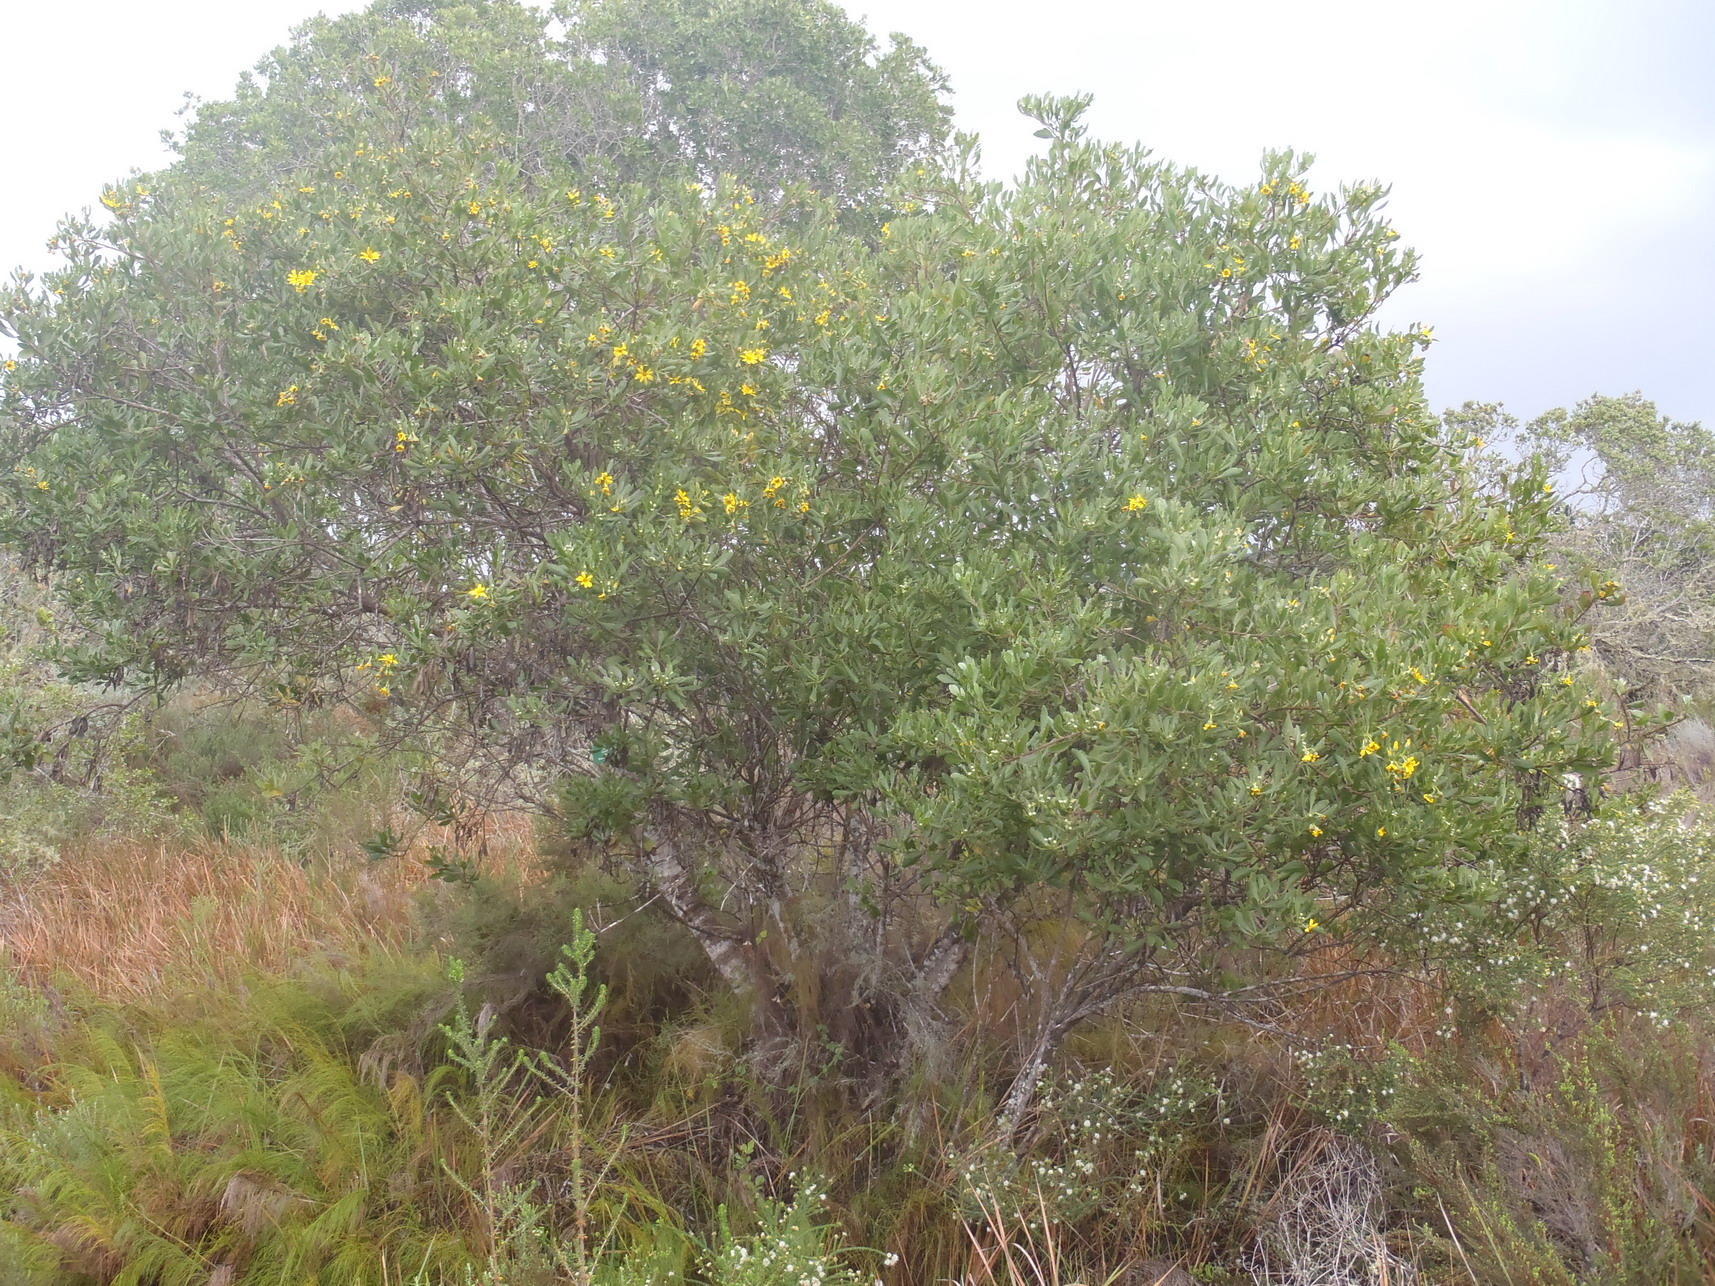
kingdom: Plantae
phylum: Tracheophyta
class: Magnoliopsida
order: Asterales
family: Asteraceae
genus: Osteospermum
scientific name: Osteospermum moniliferum
